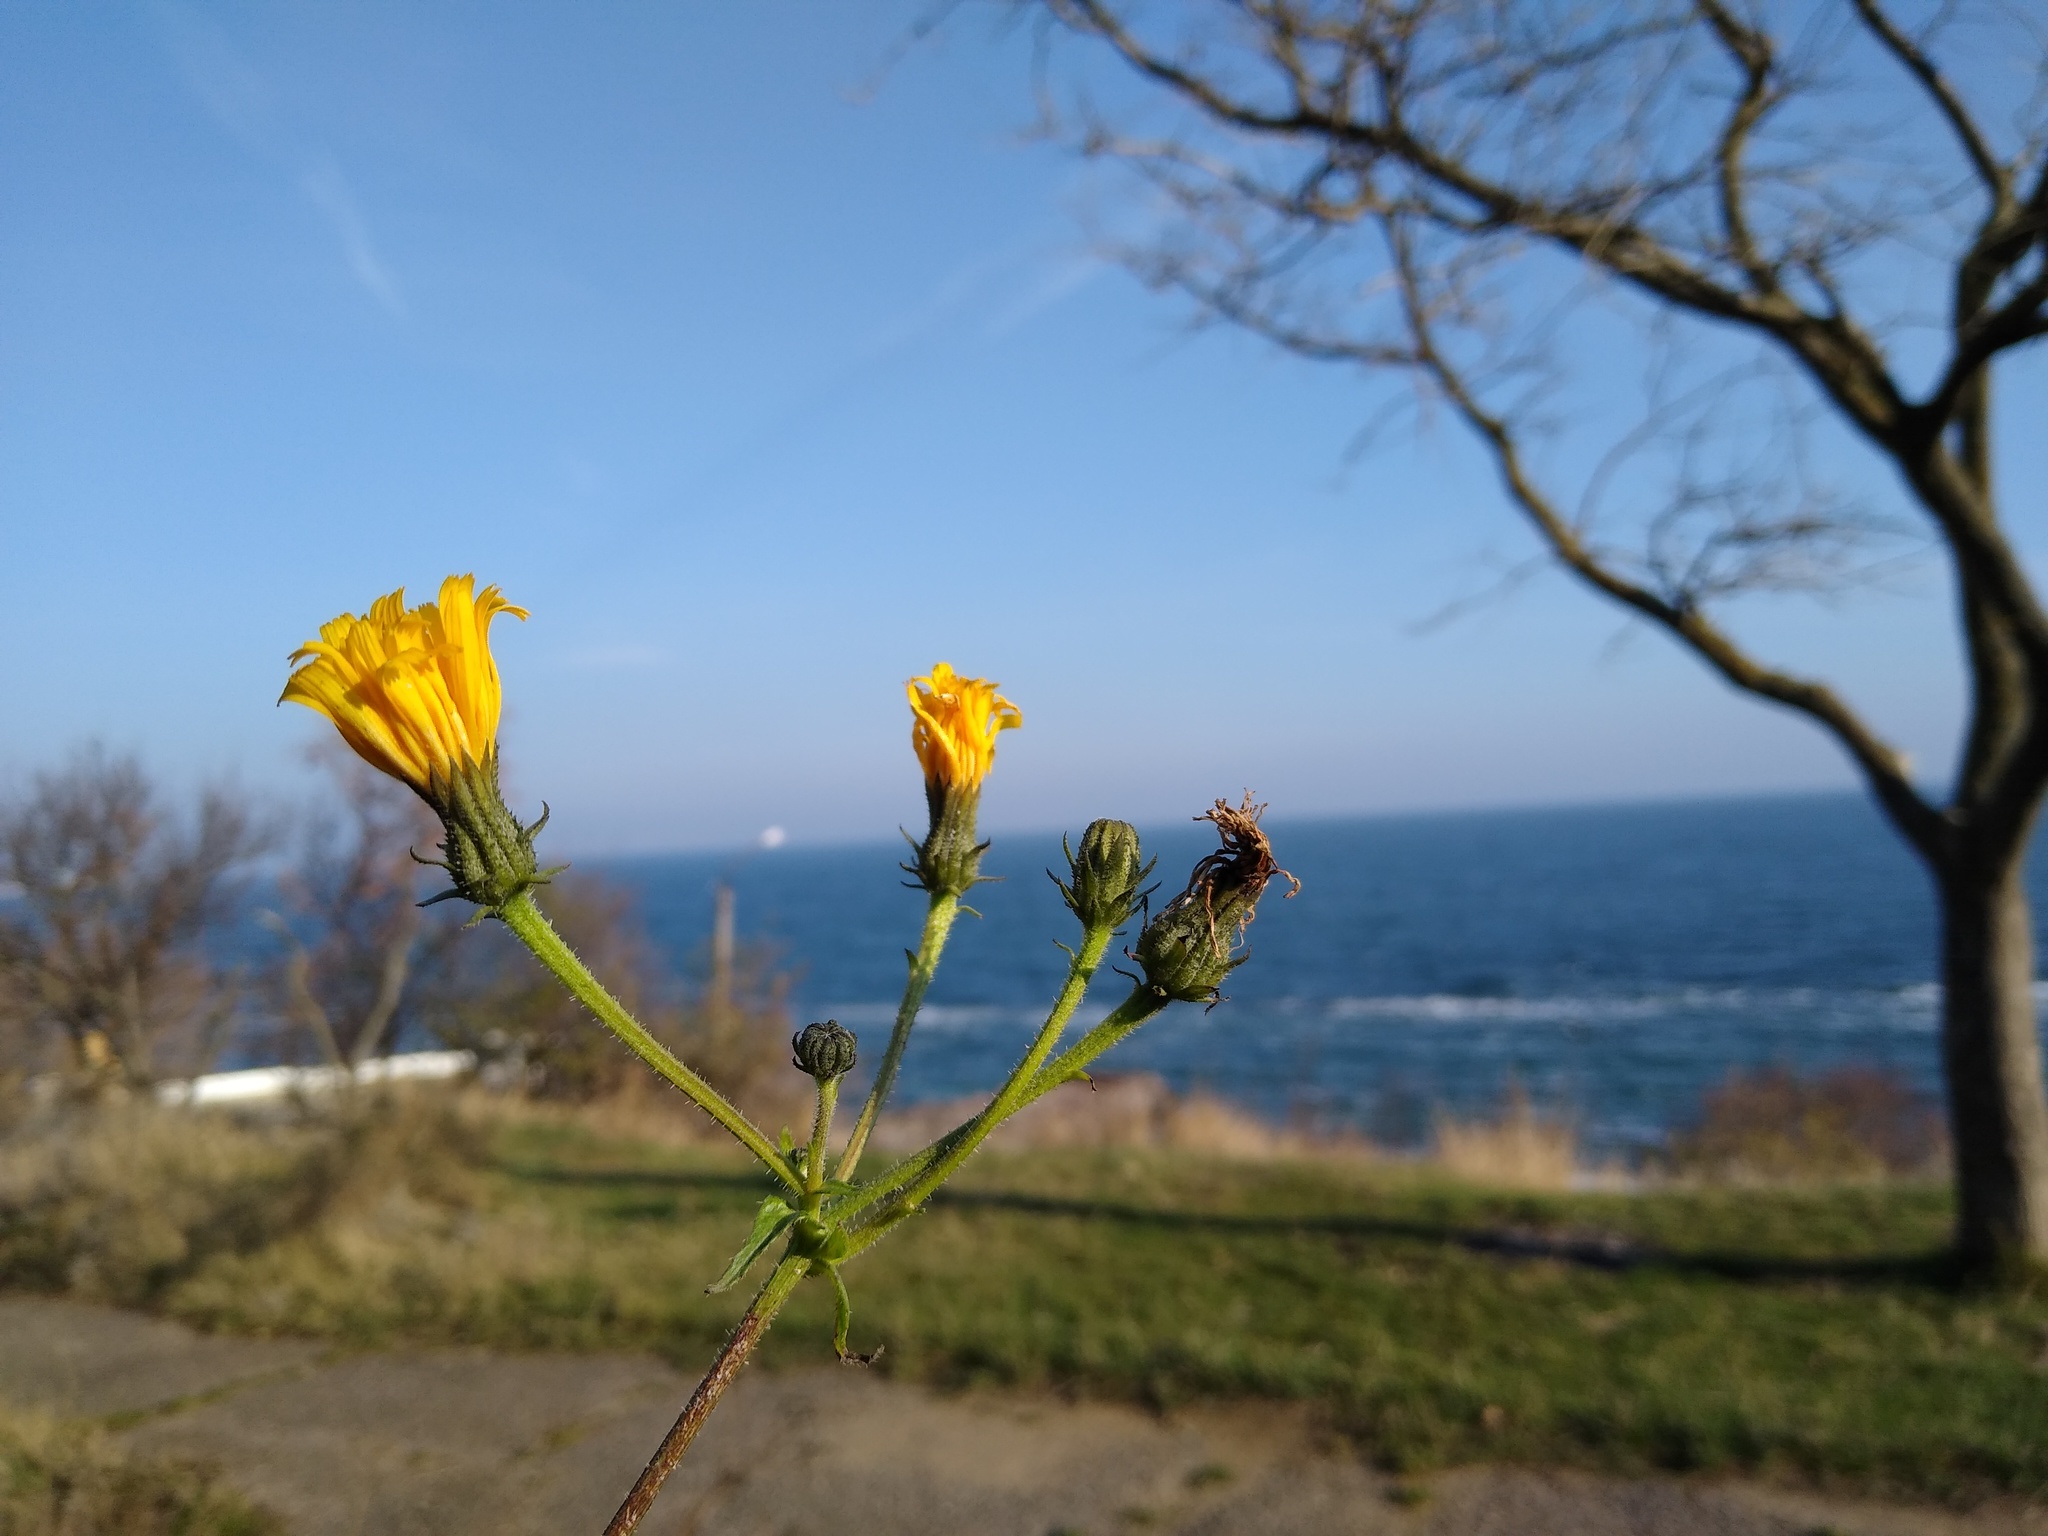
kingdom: Plantae
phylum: Tracheophyta
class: Magnoliopsida
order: Asterales
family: Asteraceae
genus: Picris
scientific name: Picris hieracioides
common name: Hawkweed oxtongue
